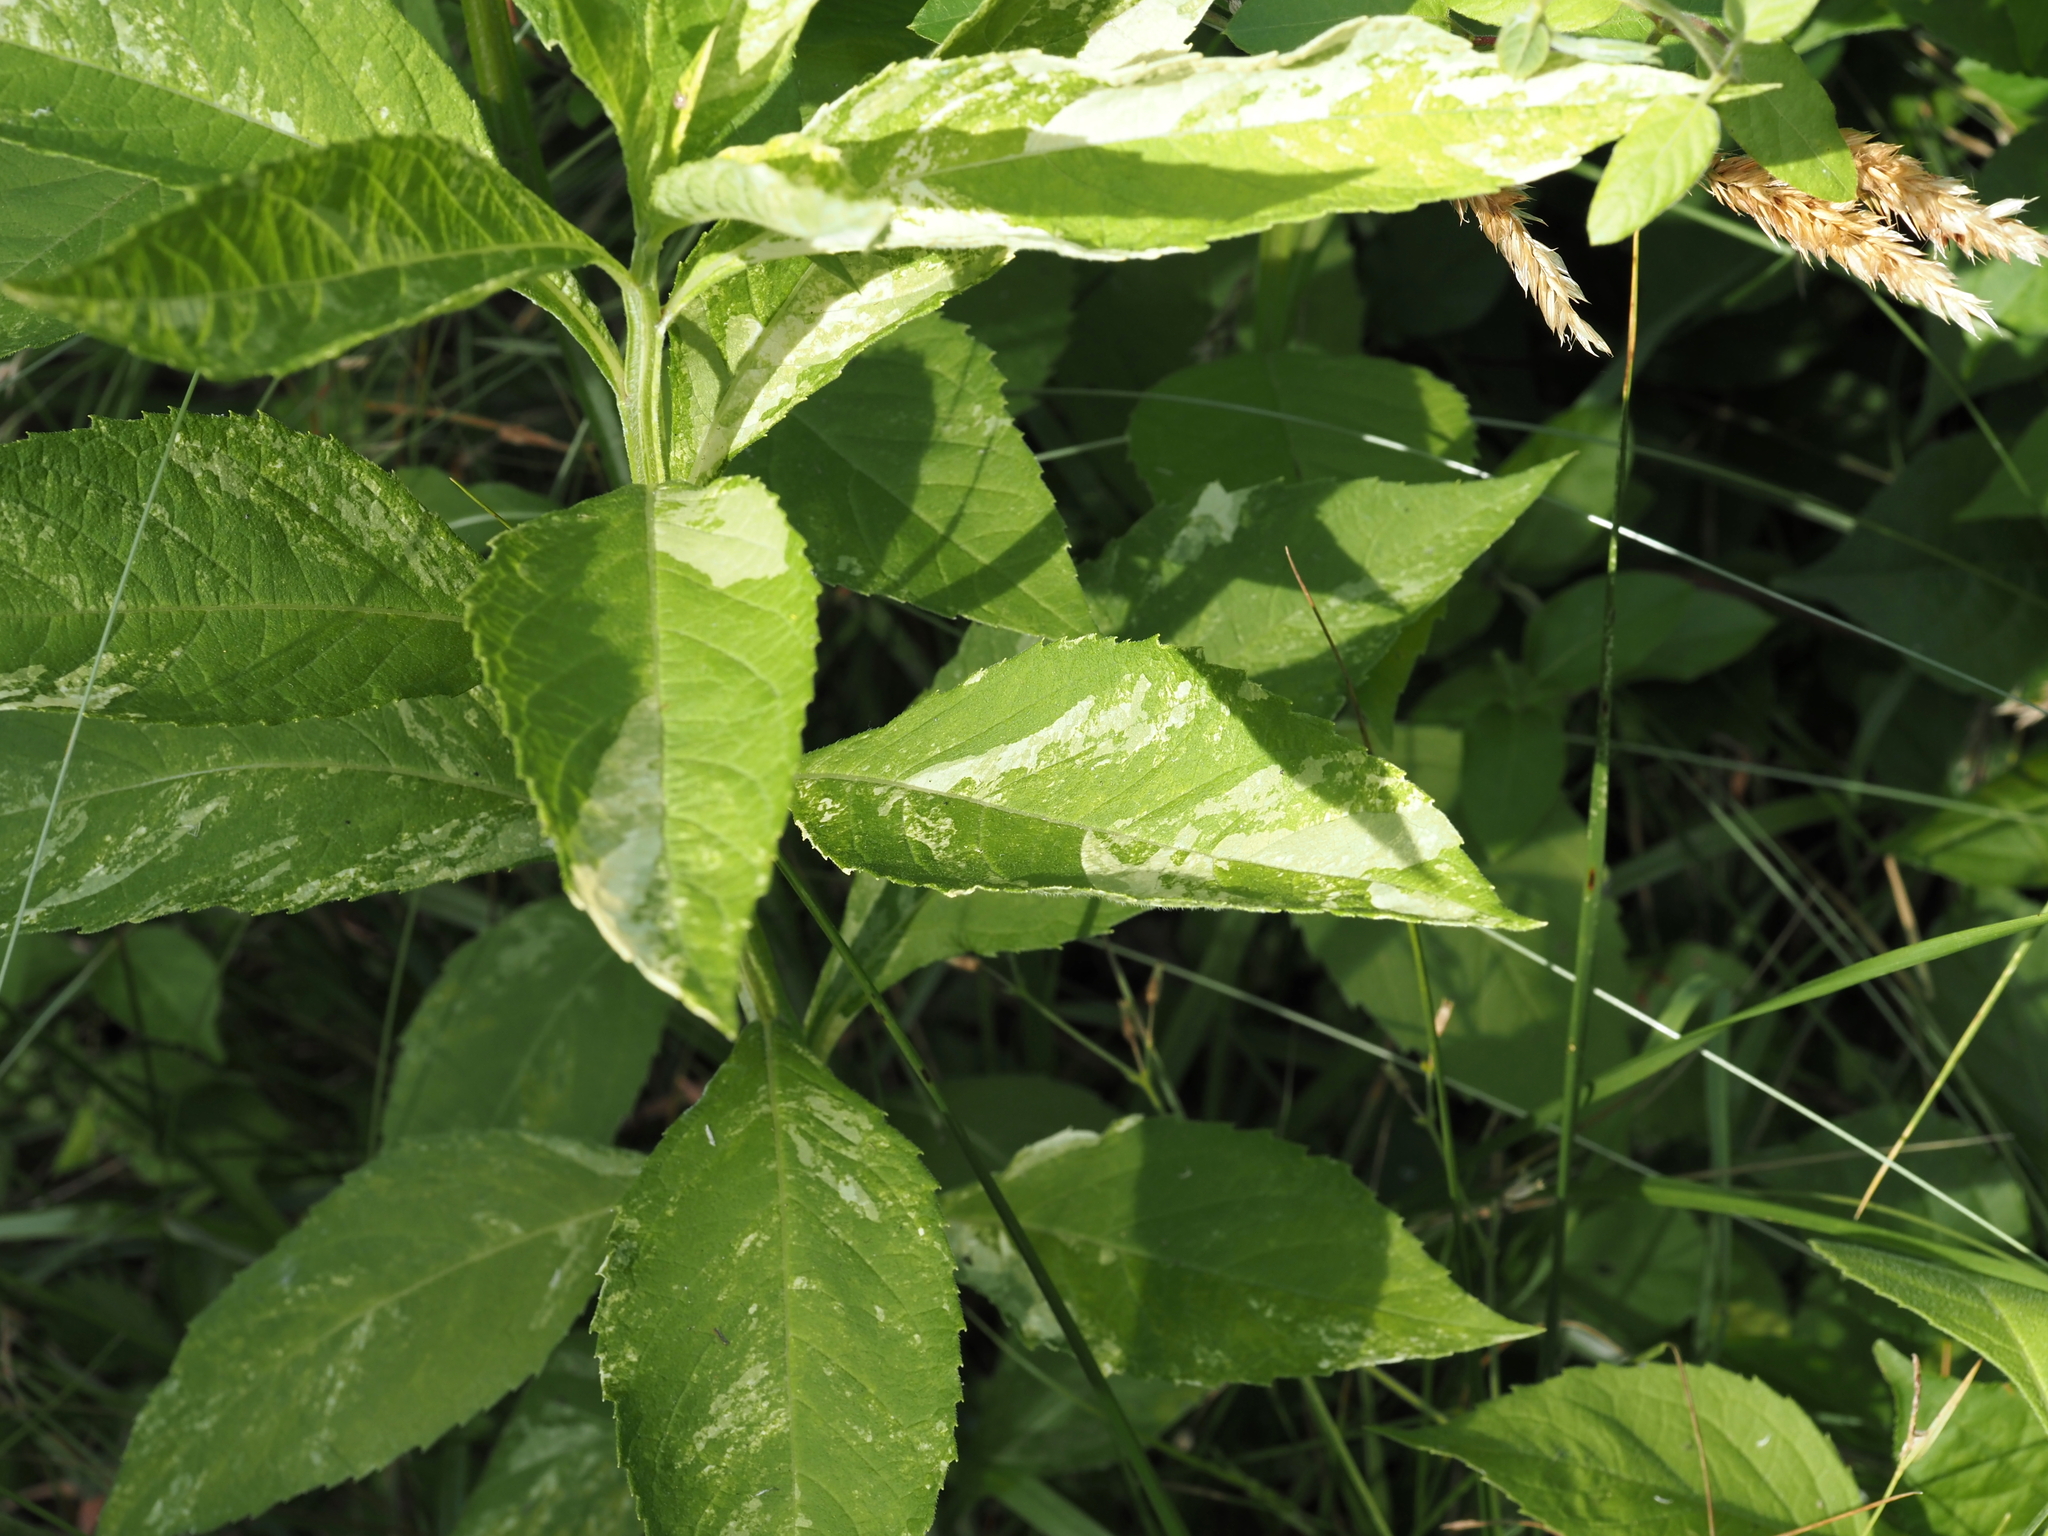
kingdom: Plantae
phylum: Tracheophyta
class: Magnoliopsida
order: Asterales
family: Asteraceae
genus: Verbesina
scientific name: Verbesina alternifolia
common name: Wingstem
